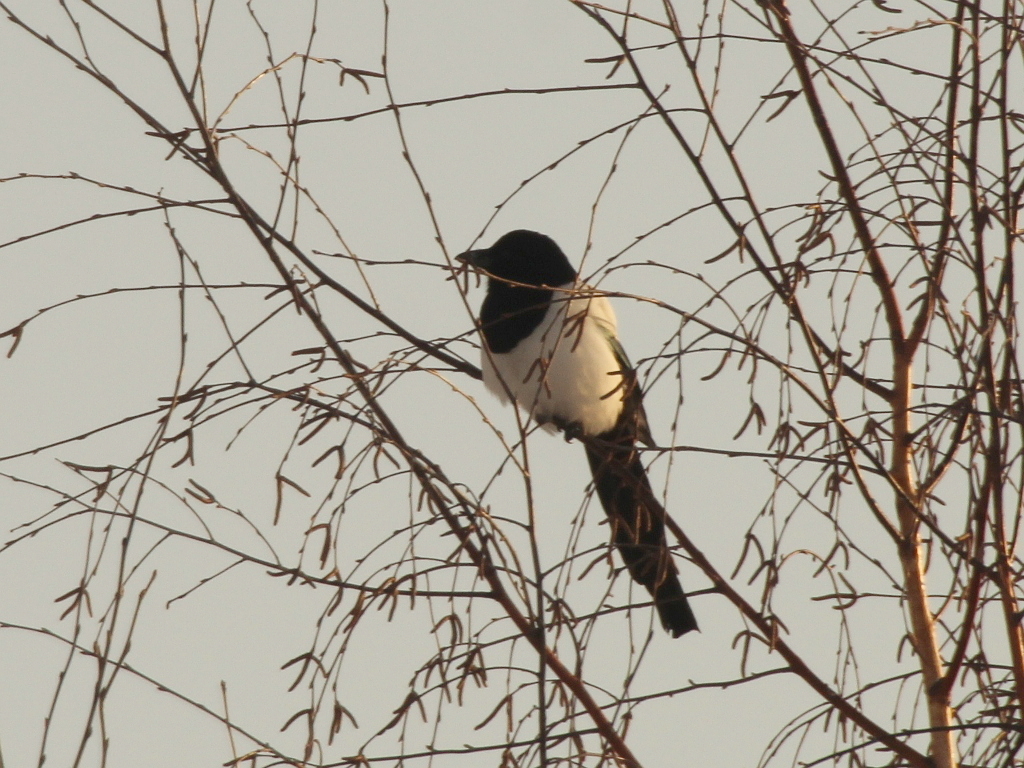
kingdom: Animalia
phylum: Chordata
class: Aves
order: Passeriformes
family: Corvidae
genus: Pica
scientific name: Pica pica
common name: Eurasian magpie
